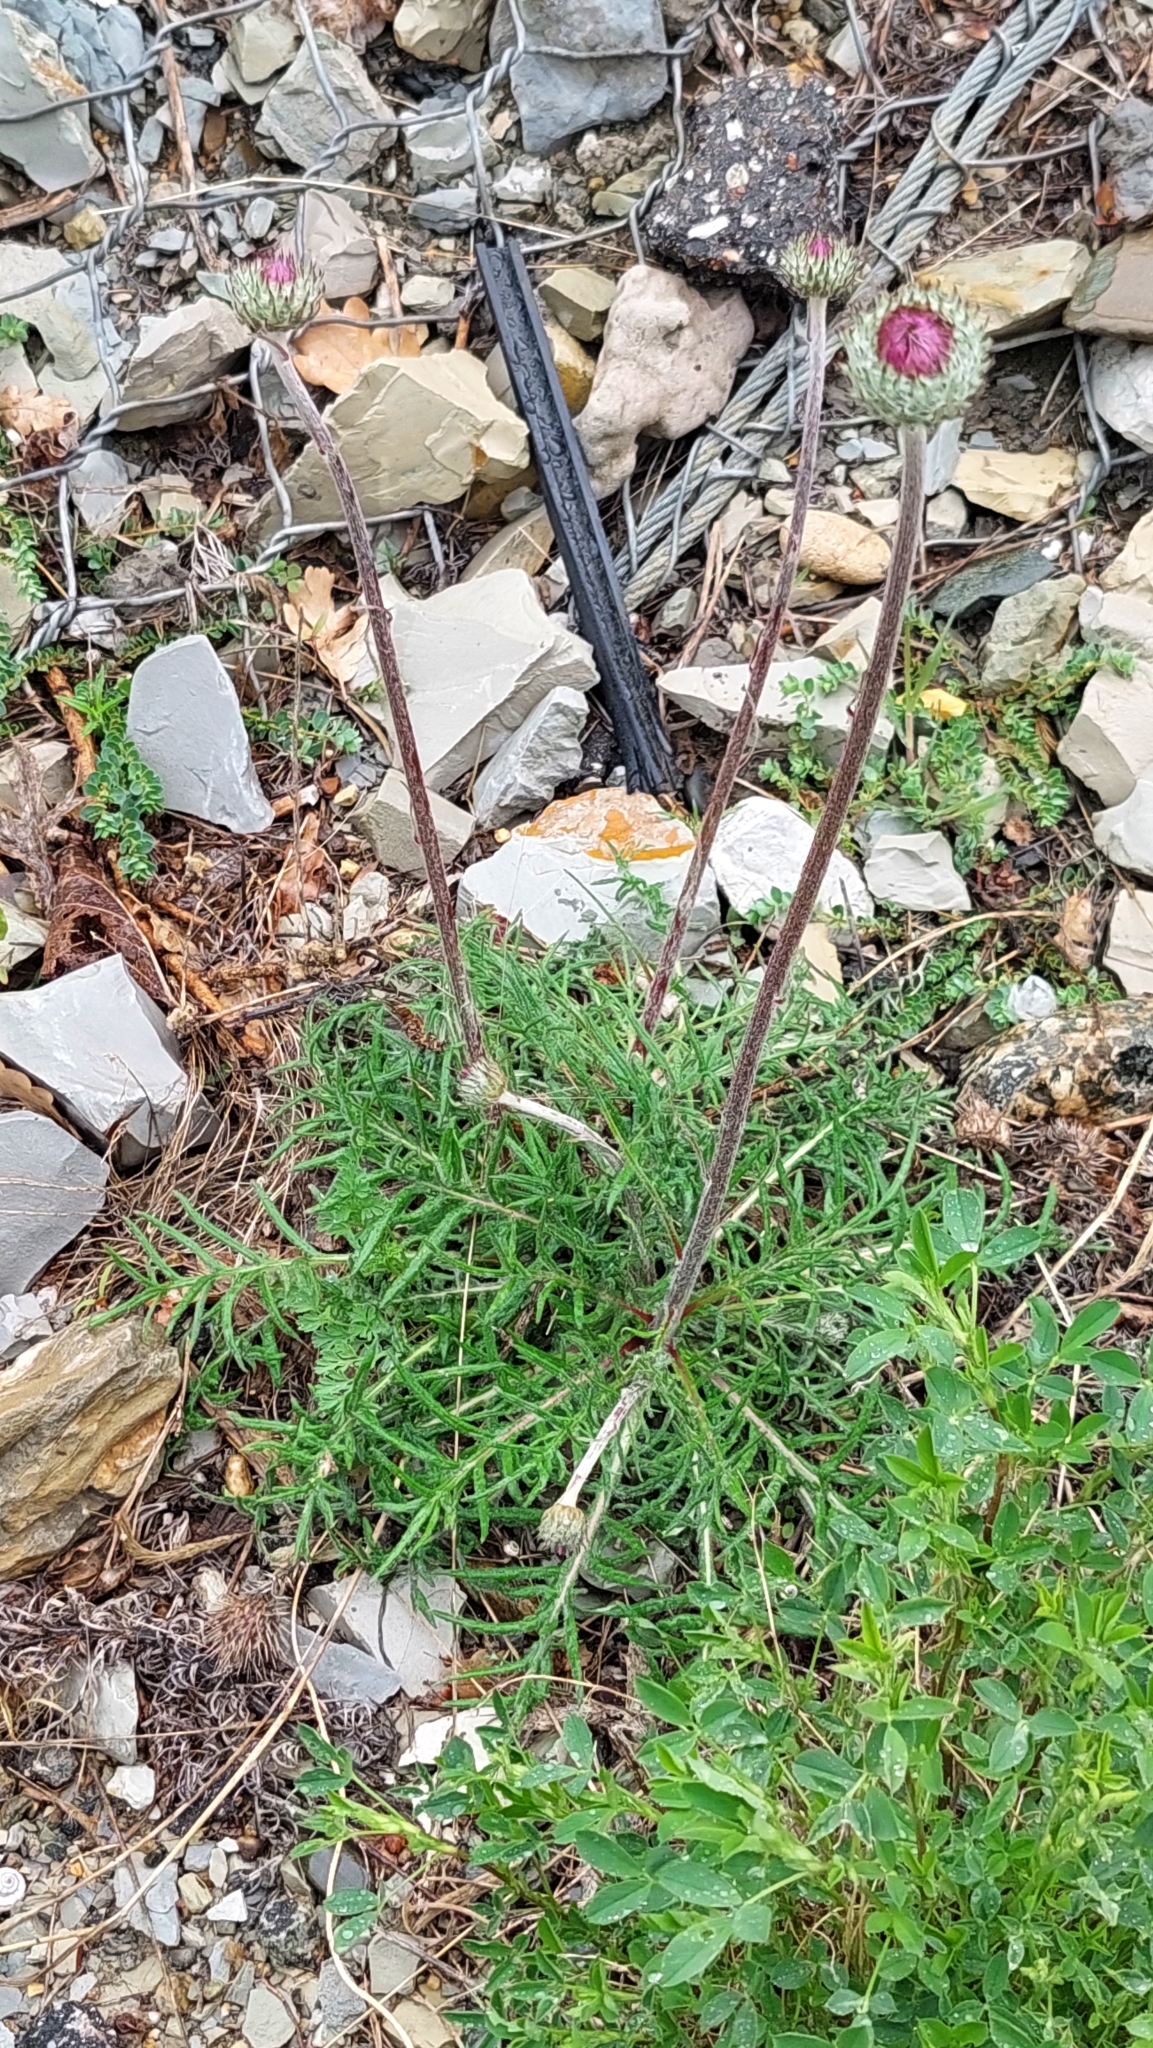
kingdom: Plantae
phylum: Tracheophyta
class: Magnoliopsida
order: Asterales
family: Asteraceae
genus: Jurinea
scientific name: Jurinea arachnoidea
